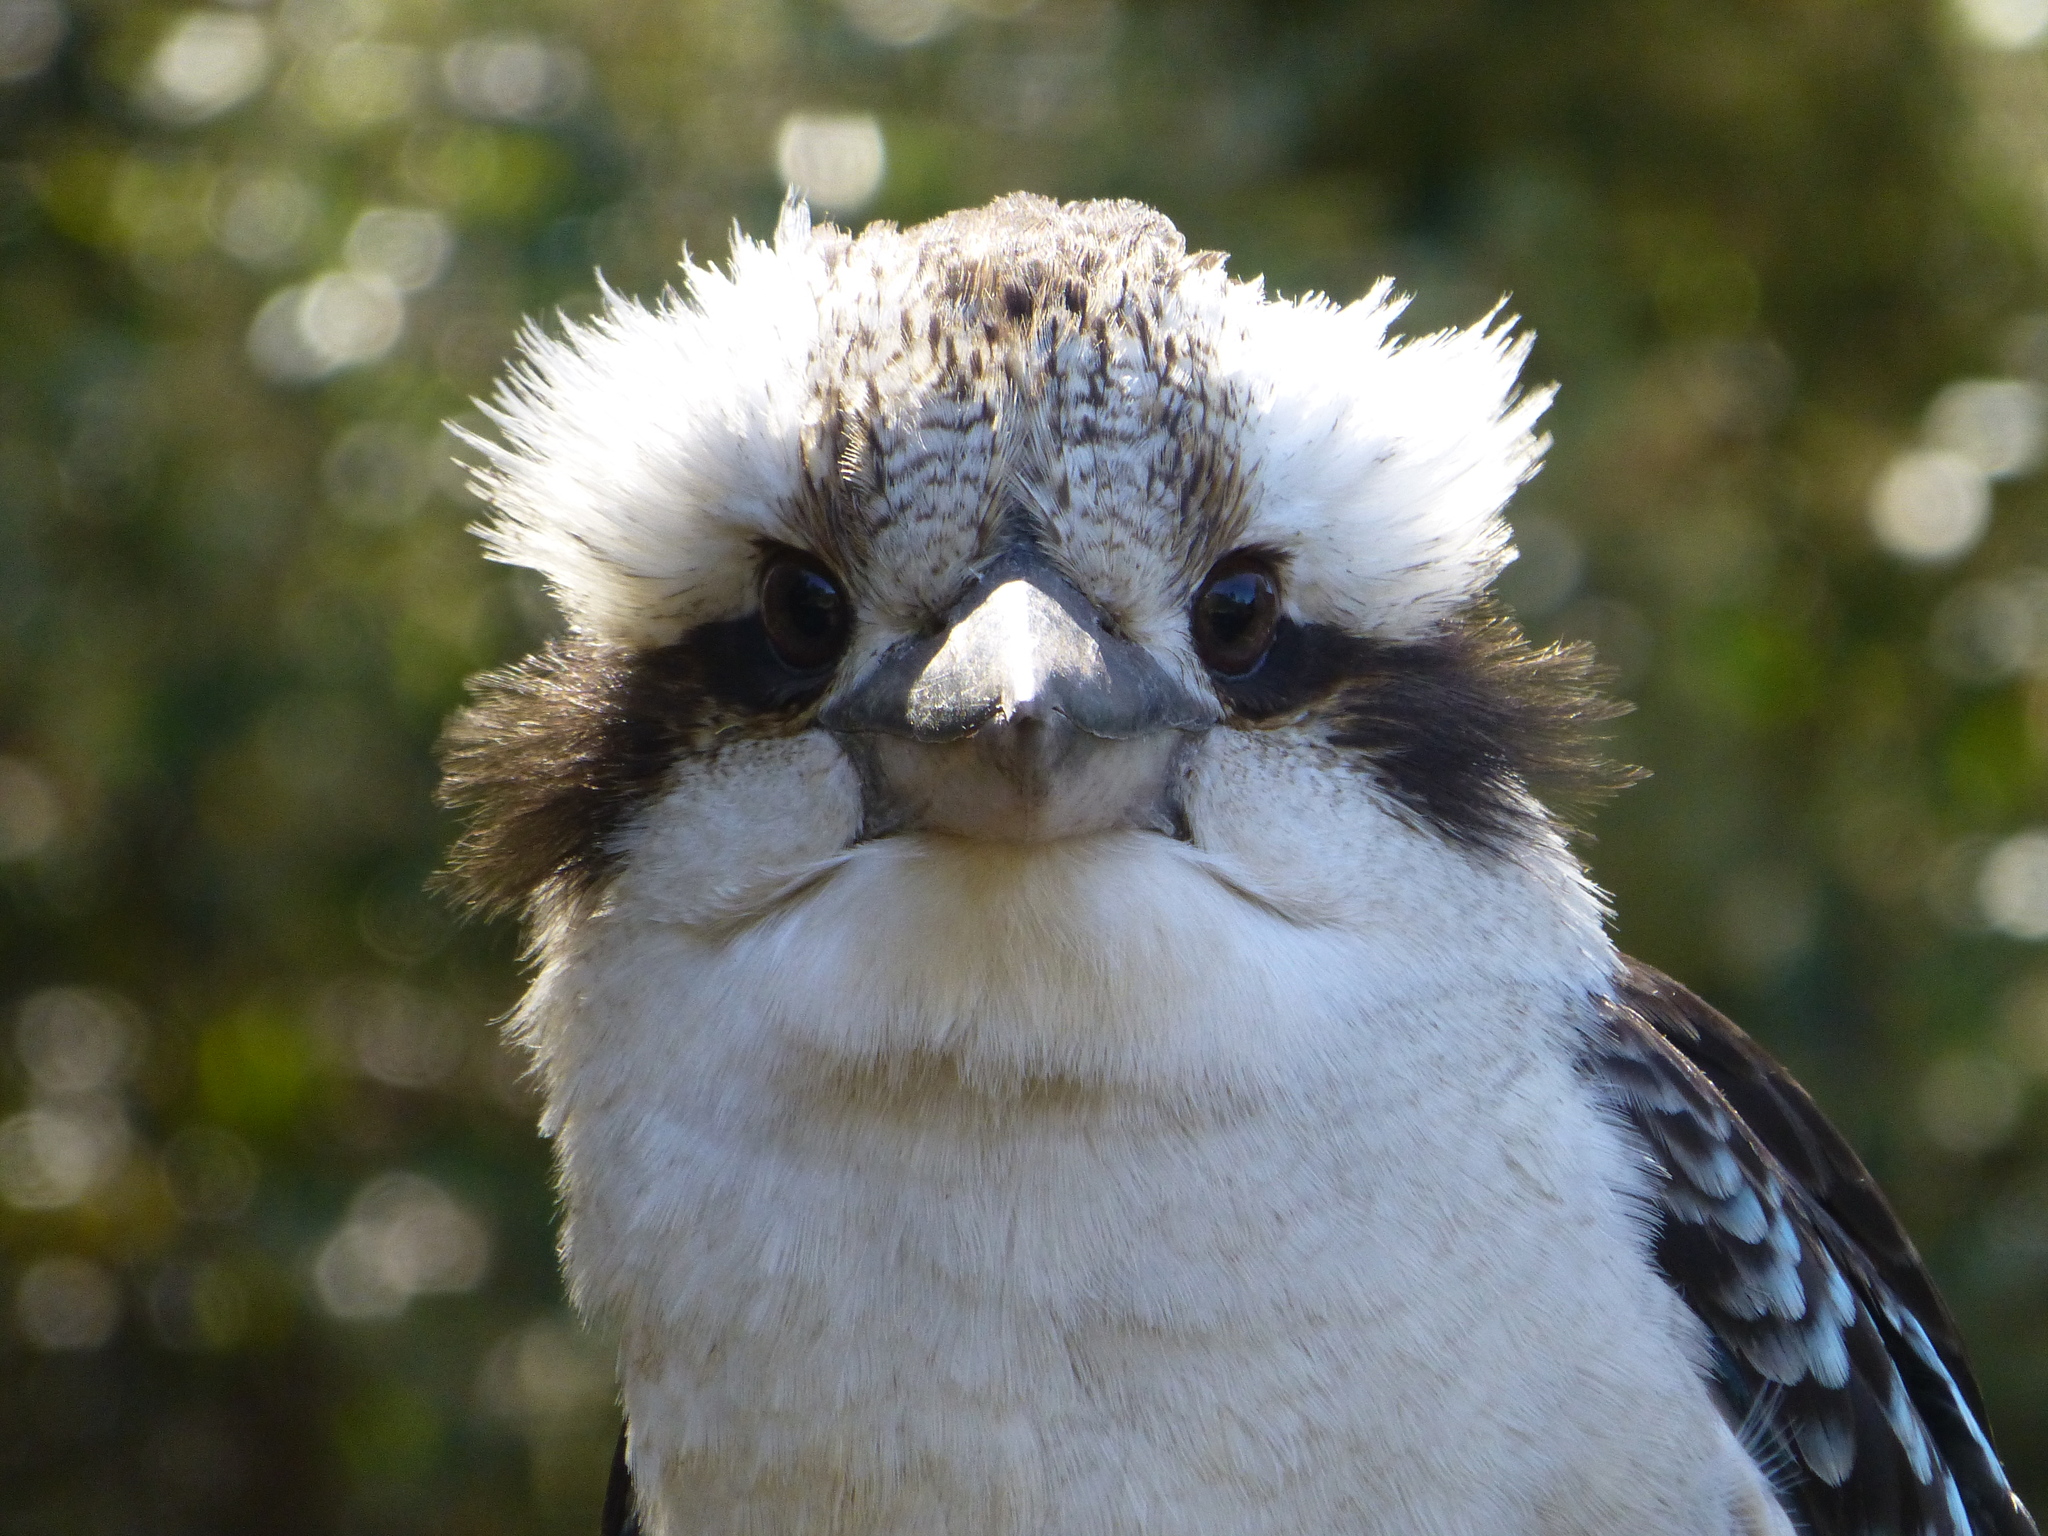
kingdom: Animalia
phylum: Chordata
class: Aves
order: Coraciiformes
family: Alcedinidae
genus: Dacelo
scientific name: Dacelo novaeguineae
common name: Laughing kookaburra
